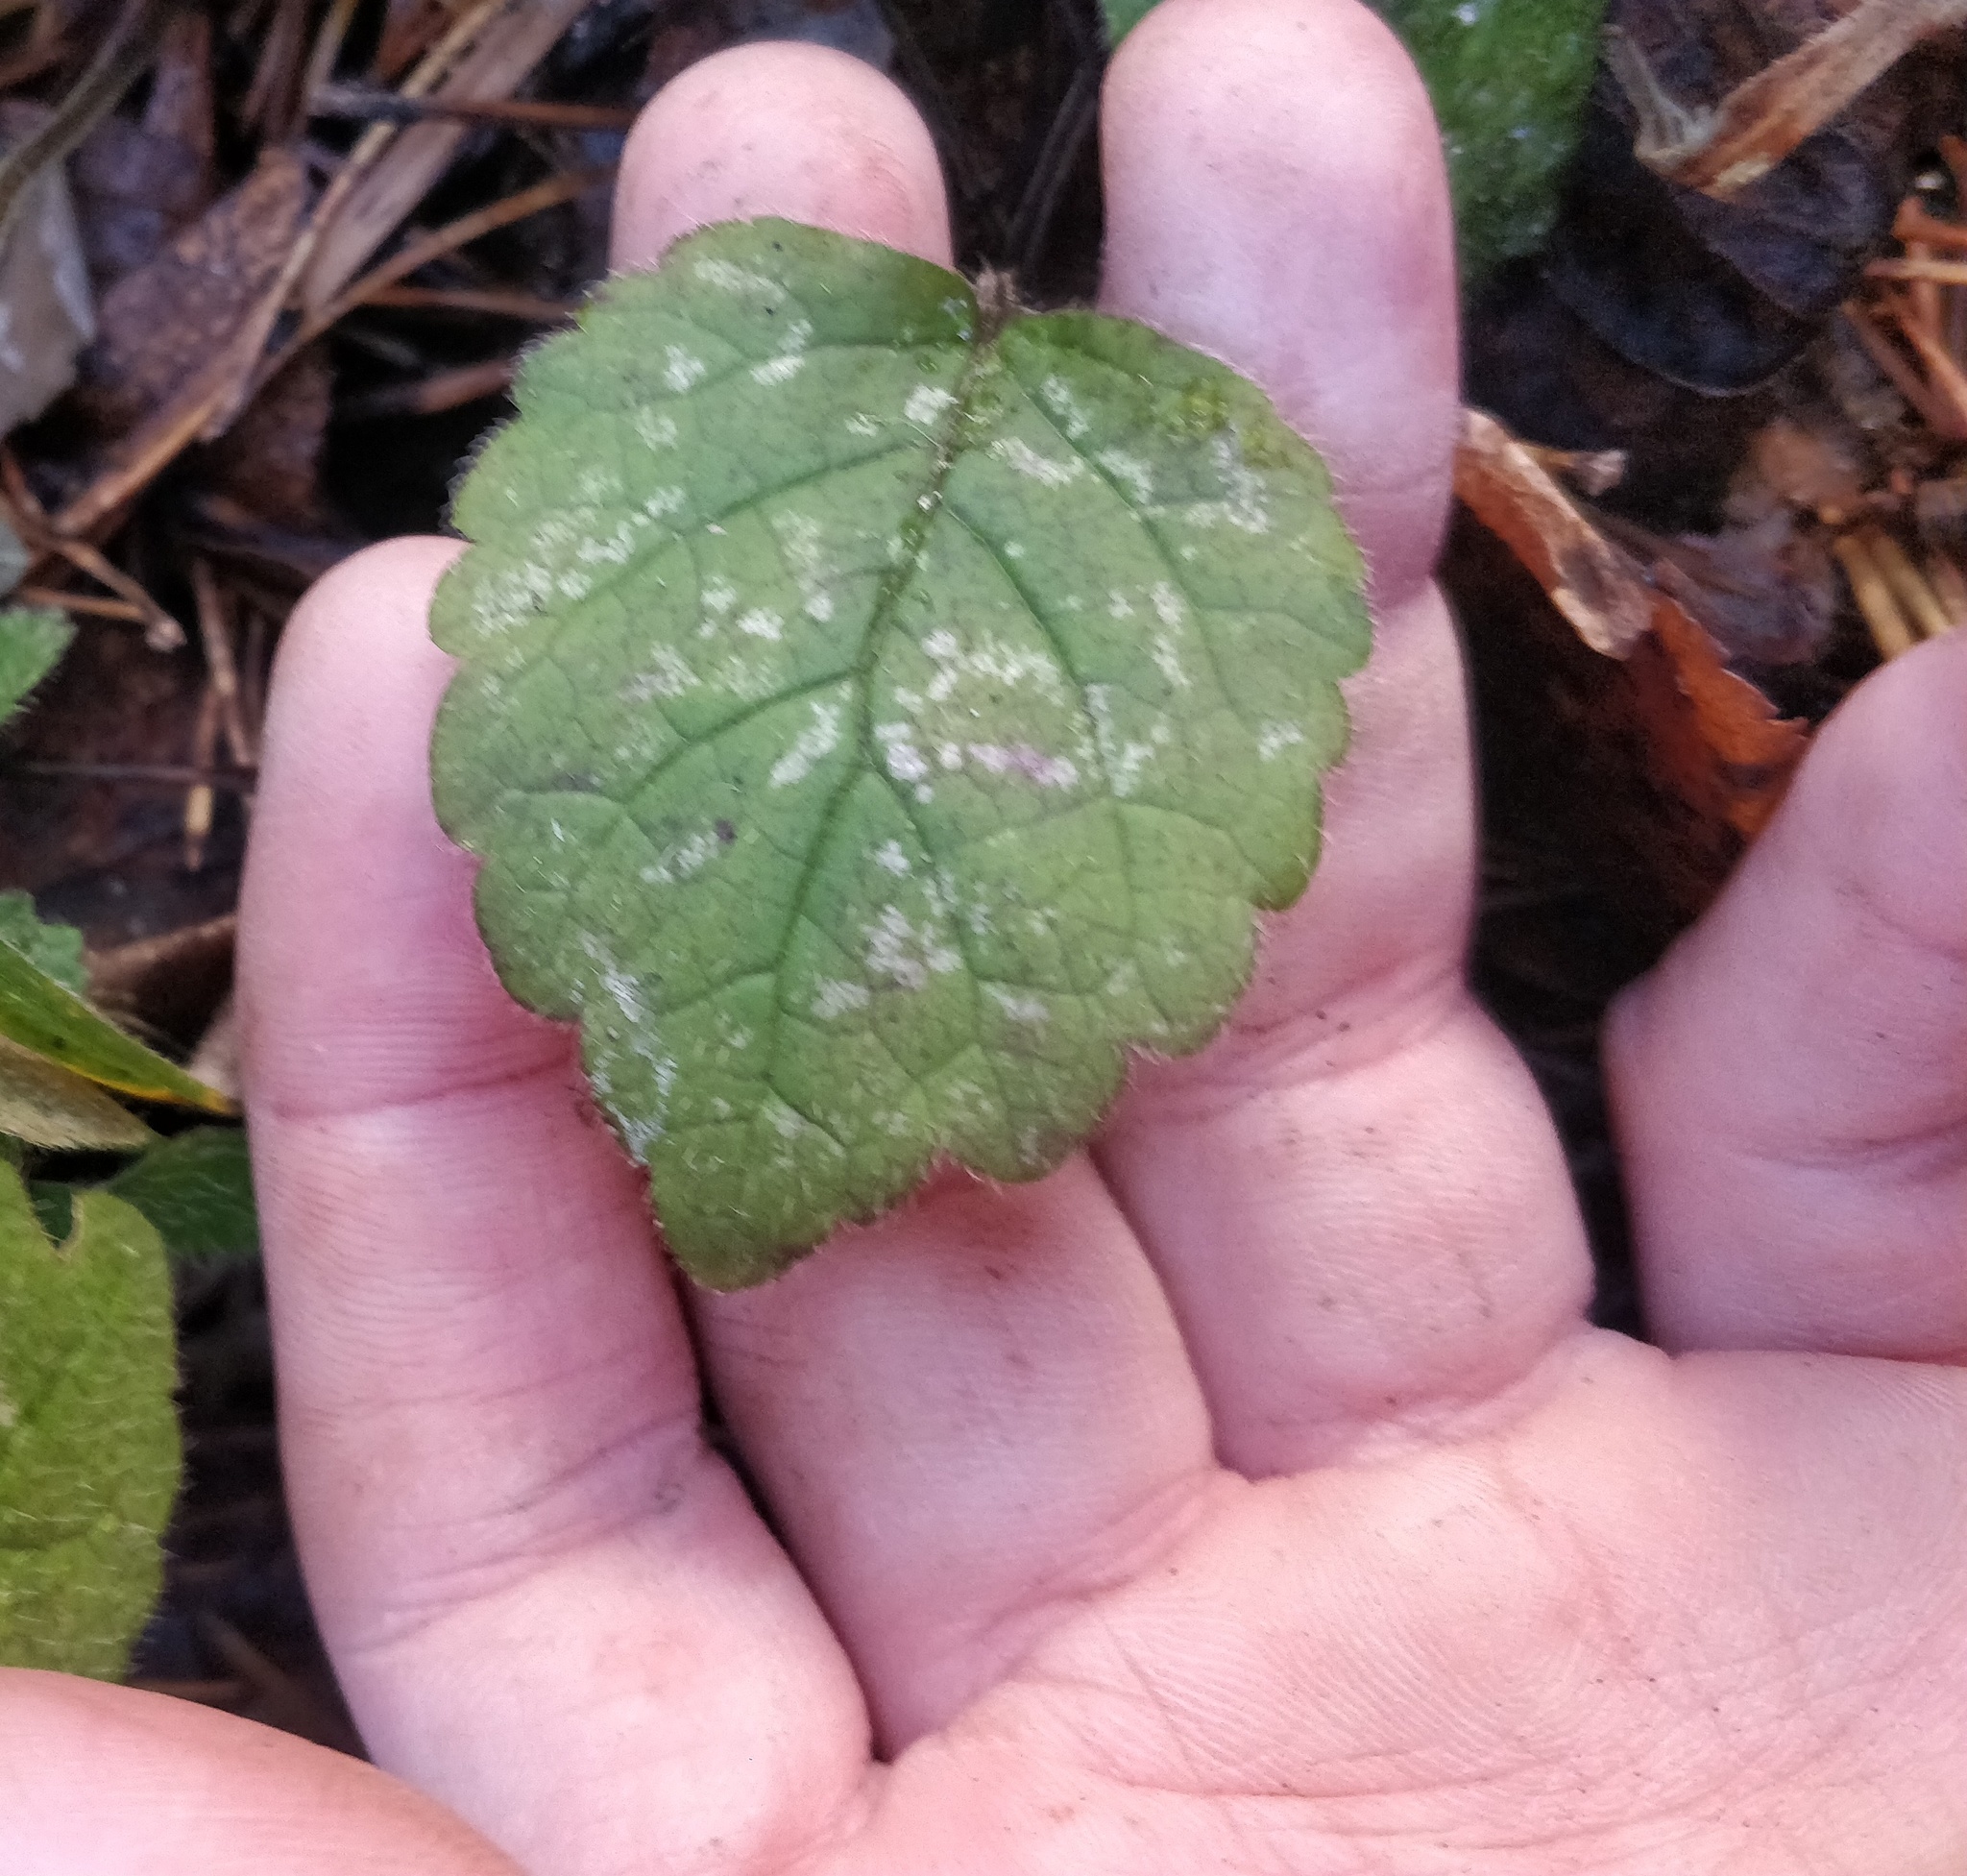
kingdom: Plantae
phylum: Tracheophyta
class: Magnoliopsida
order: Lamiales
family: Lamiaceae
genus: Lamium
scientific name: Lamium galeobdolon
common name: Yellow archangel
